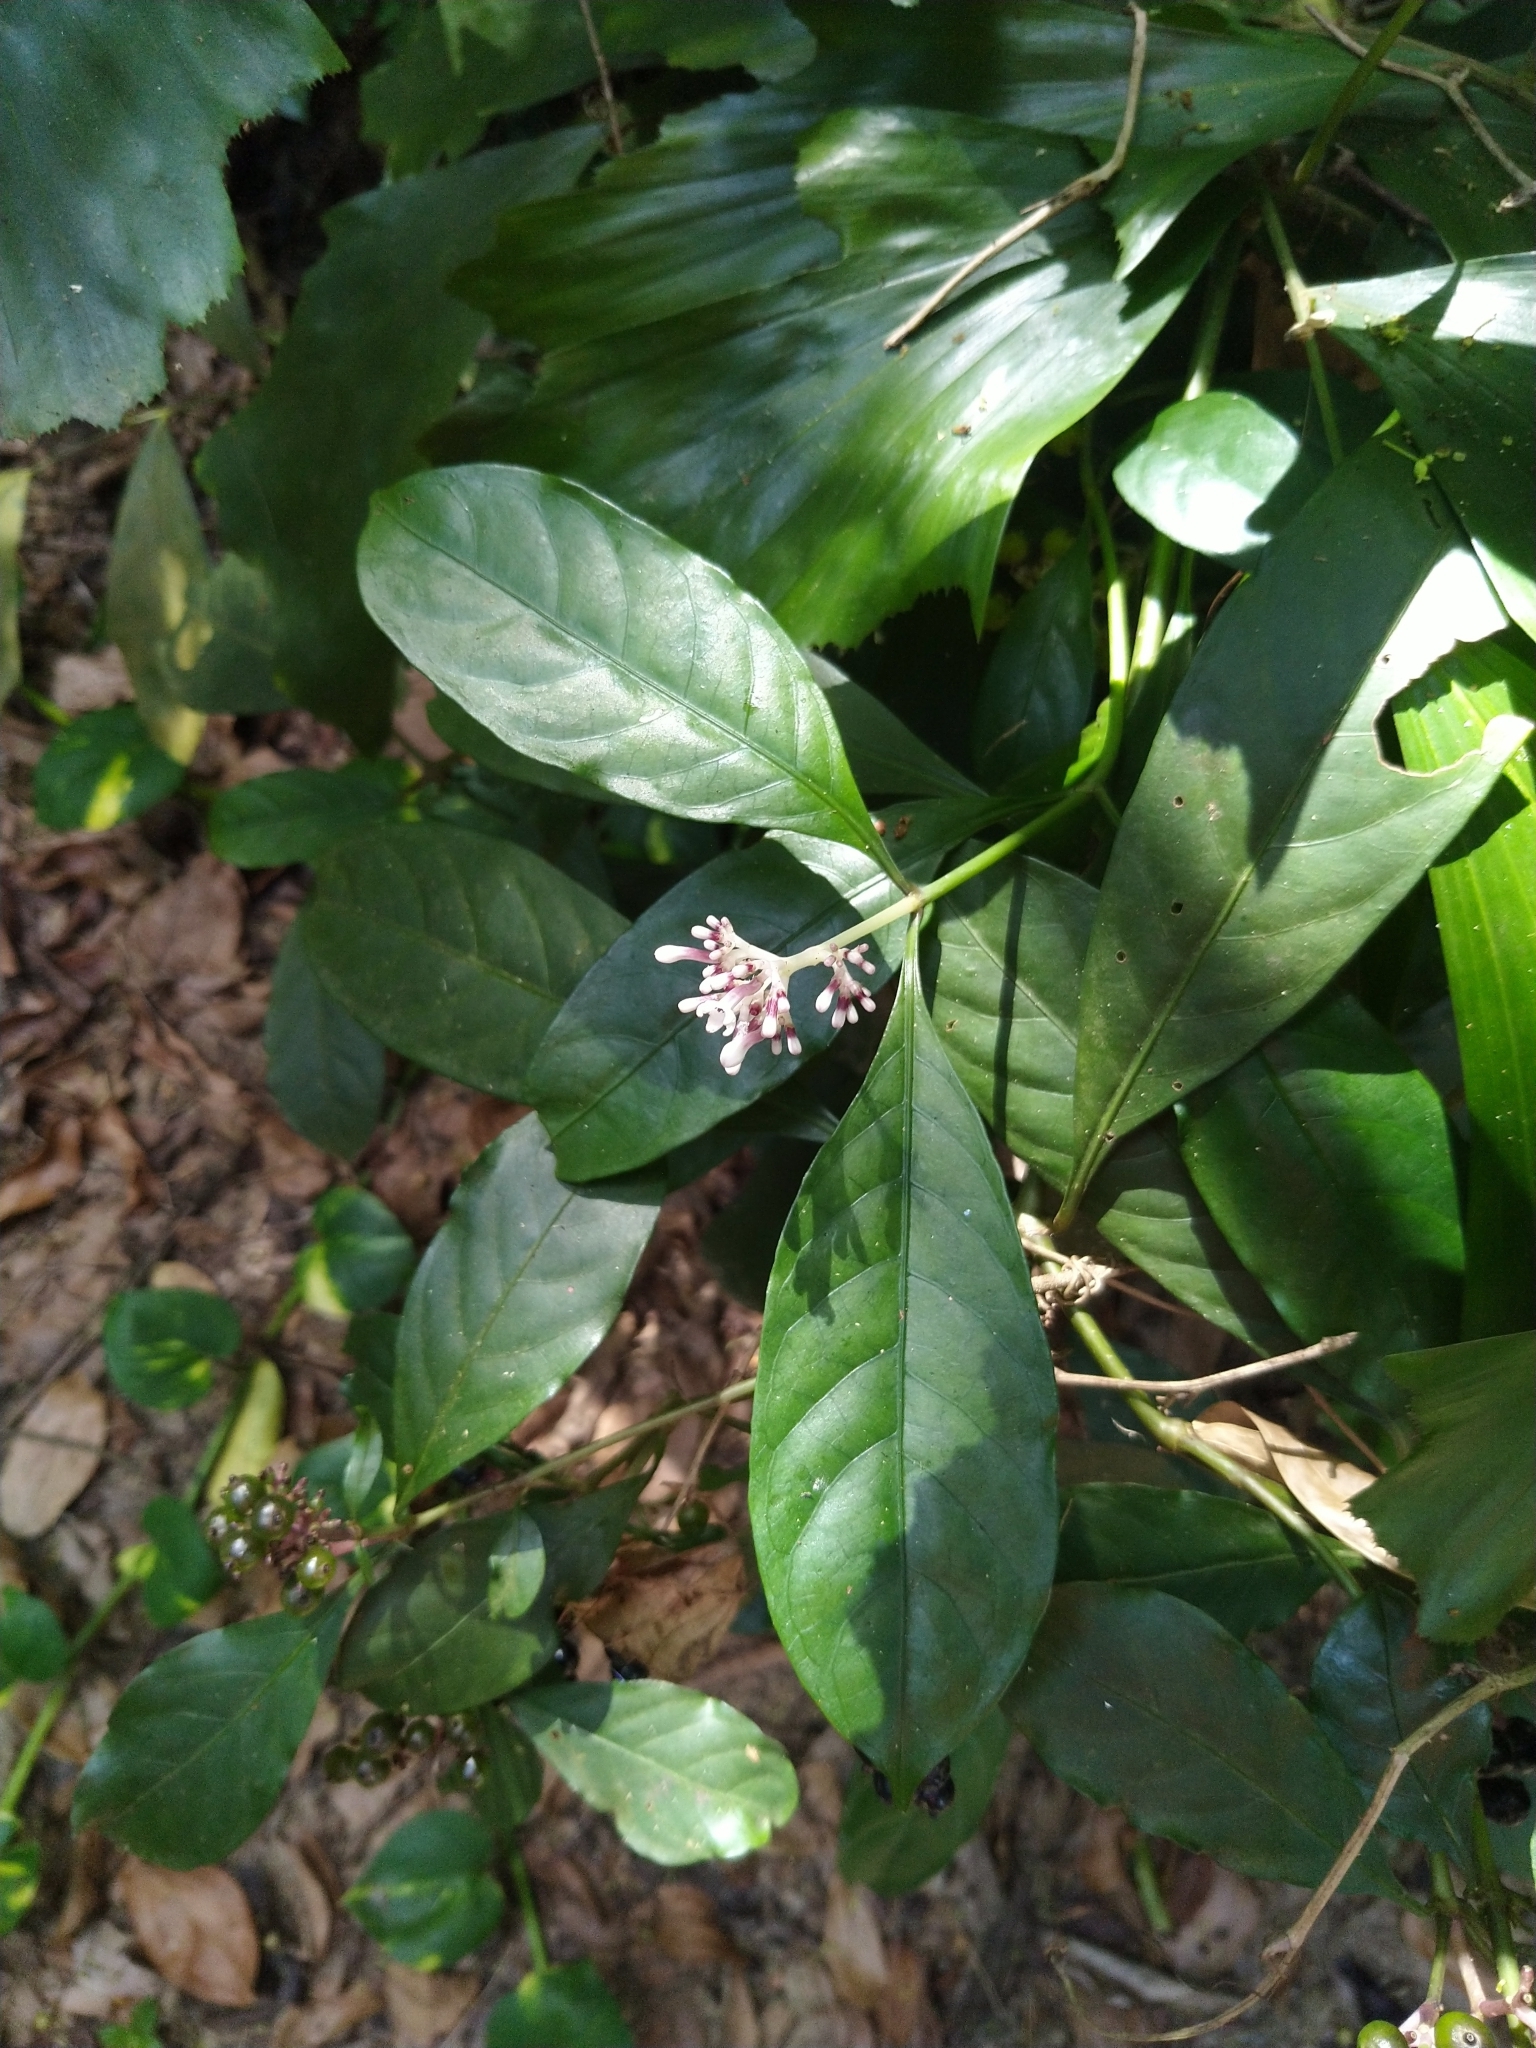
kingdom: Plantae
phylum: Tracheophyta
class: Magnoliopsida
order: Gentianales
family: Rubiaceae
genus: Chassalia
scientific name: Chassalia curviflora
